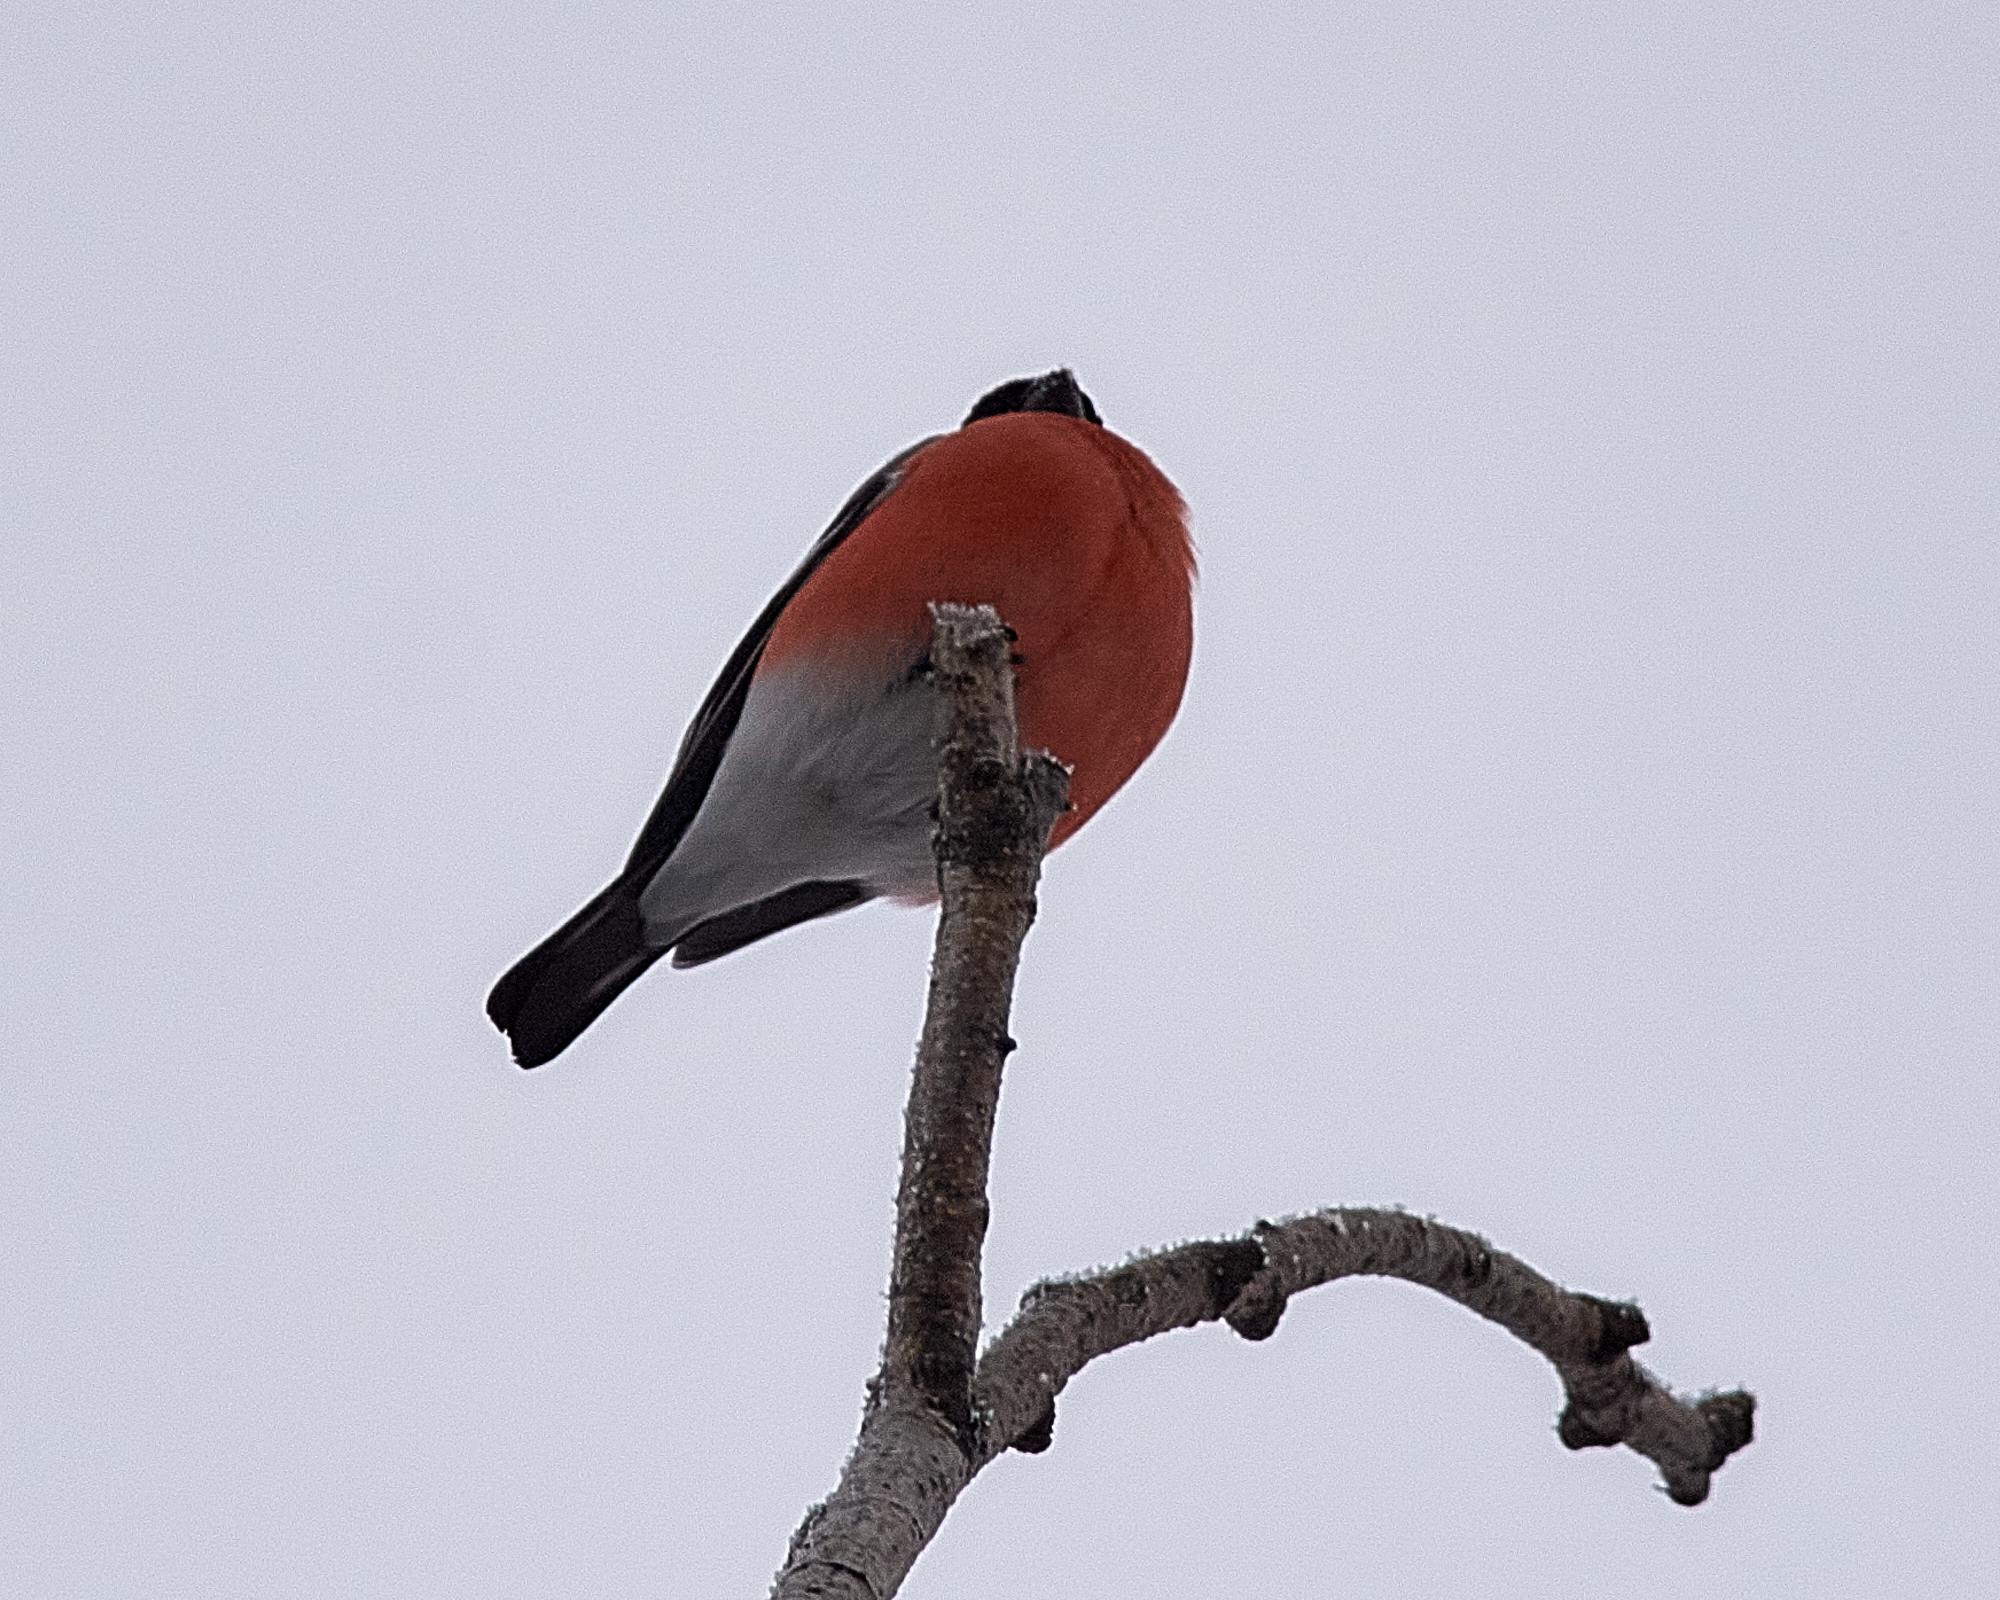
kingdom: Animalia
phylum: Chordata
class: Aves
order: Passeriformes
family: Fringillidae
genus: Pyrrhula
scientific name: Pyrrhula pyrrhula
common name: Eurasian bullfinch
